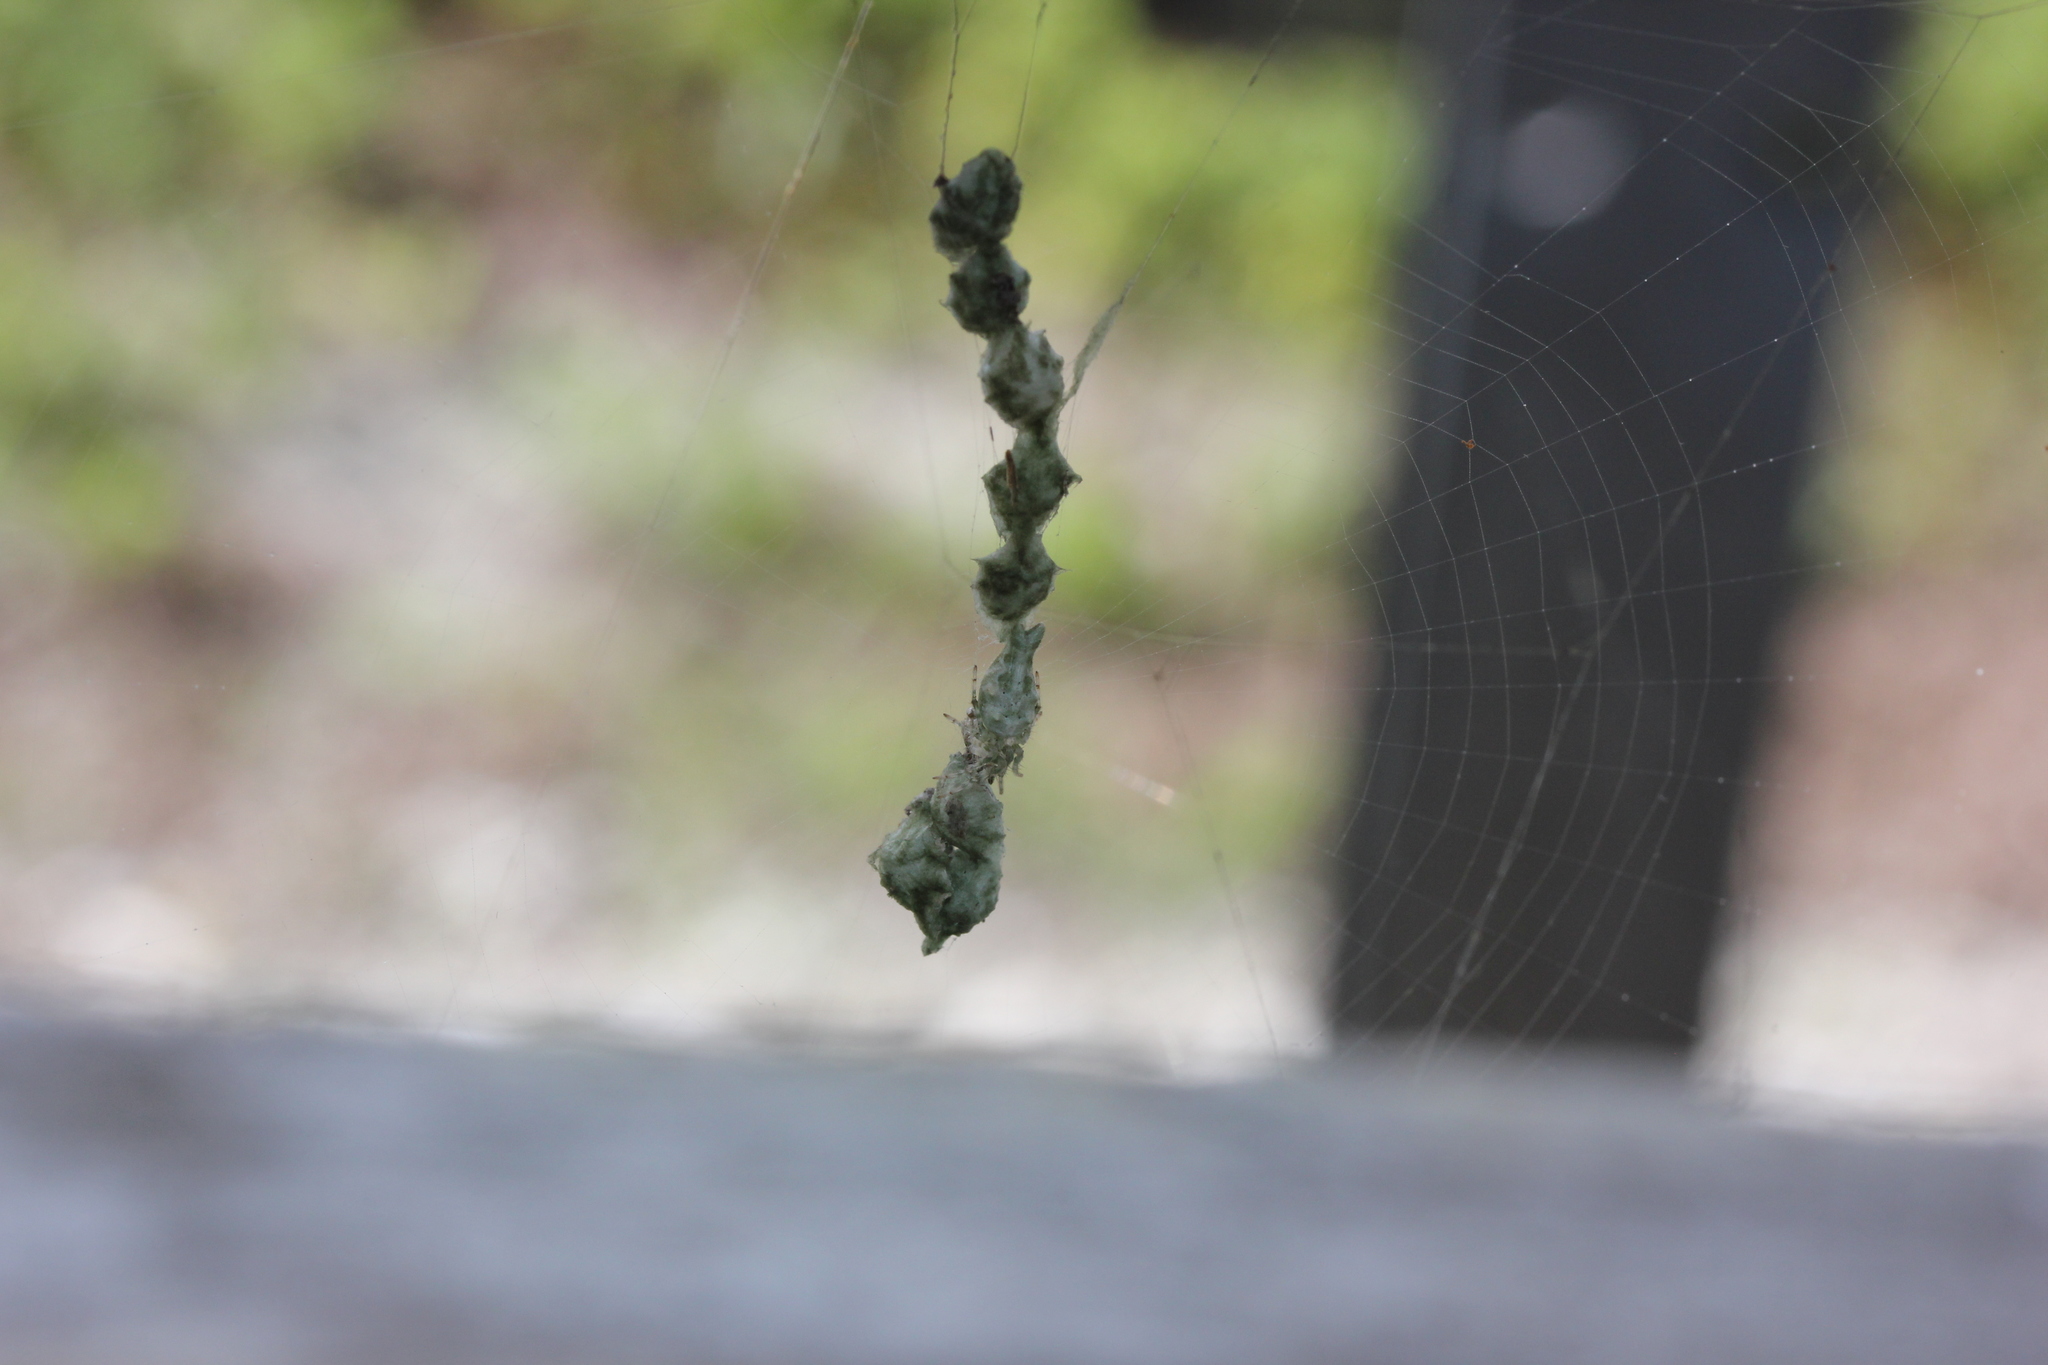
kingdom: Animalia
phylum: Arthropoda
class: Arachnida
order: Araneae
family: Araneidae
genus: Allocyclosa
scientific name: Allocyclosa bifurca
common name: Orb weavers
